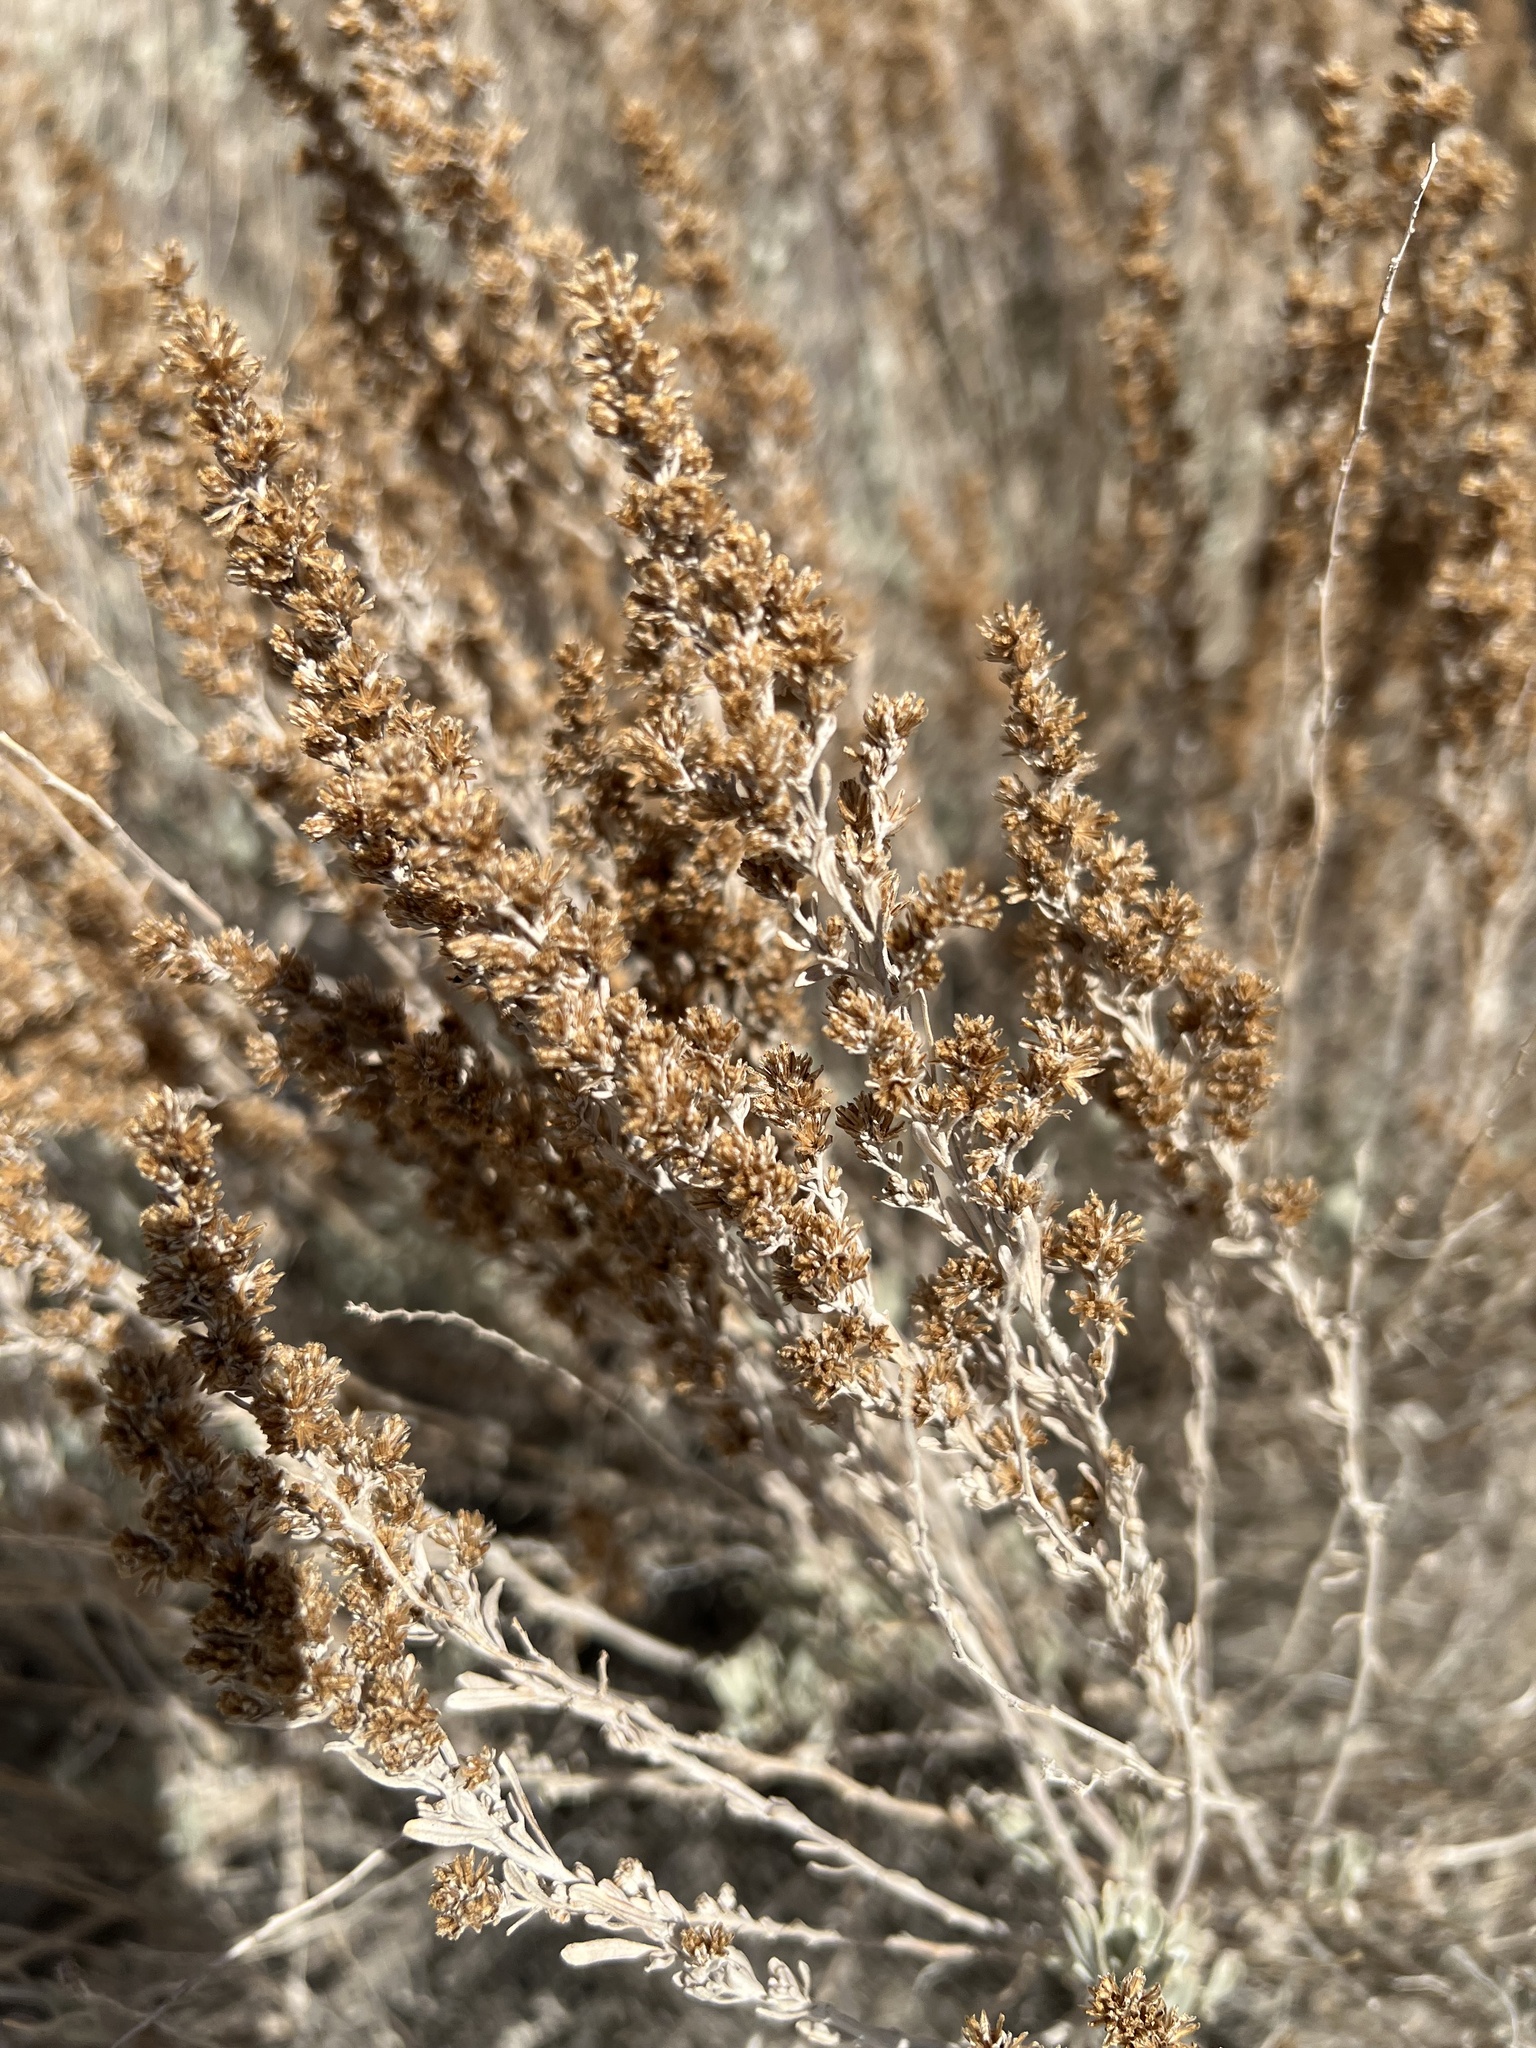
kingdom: Plantae
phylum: Tracheophyta
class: Magnoliopsida
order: Asterales
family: Asteraceae
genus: Artemisia
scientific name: Artemisia tridentata
